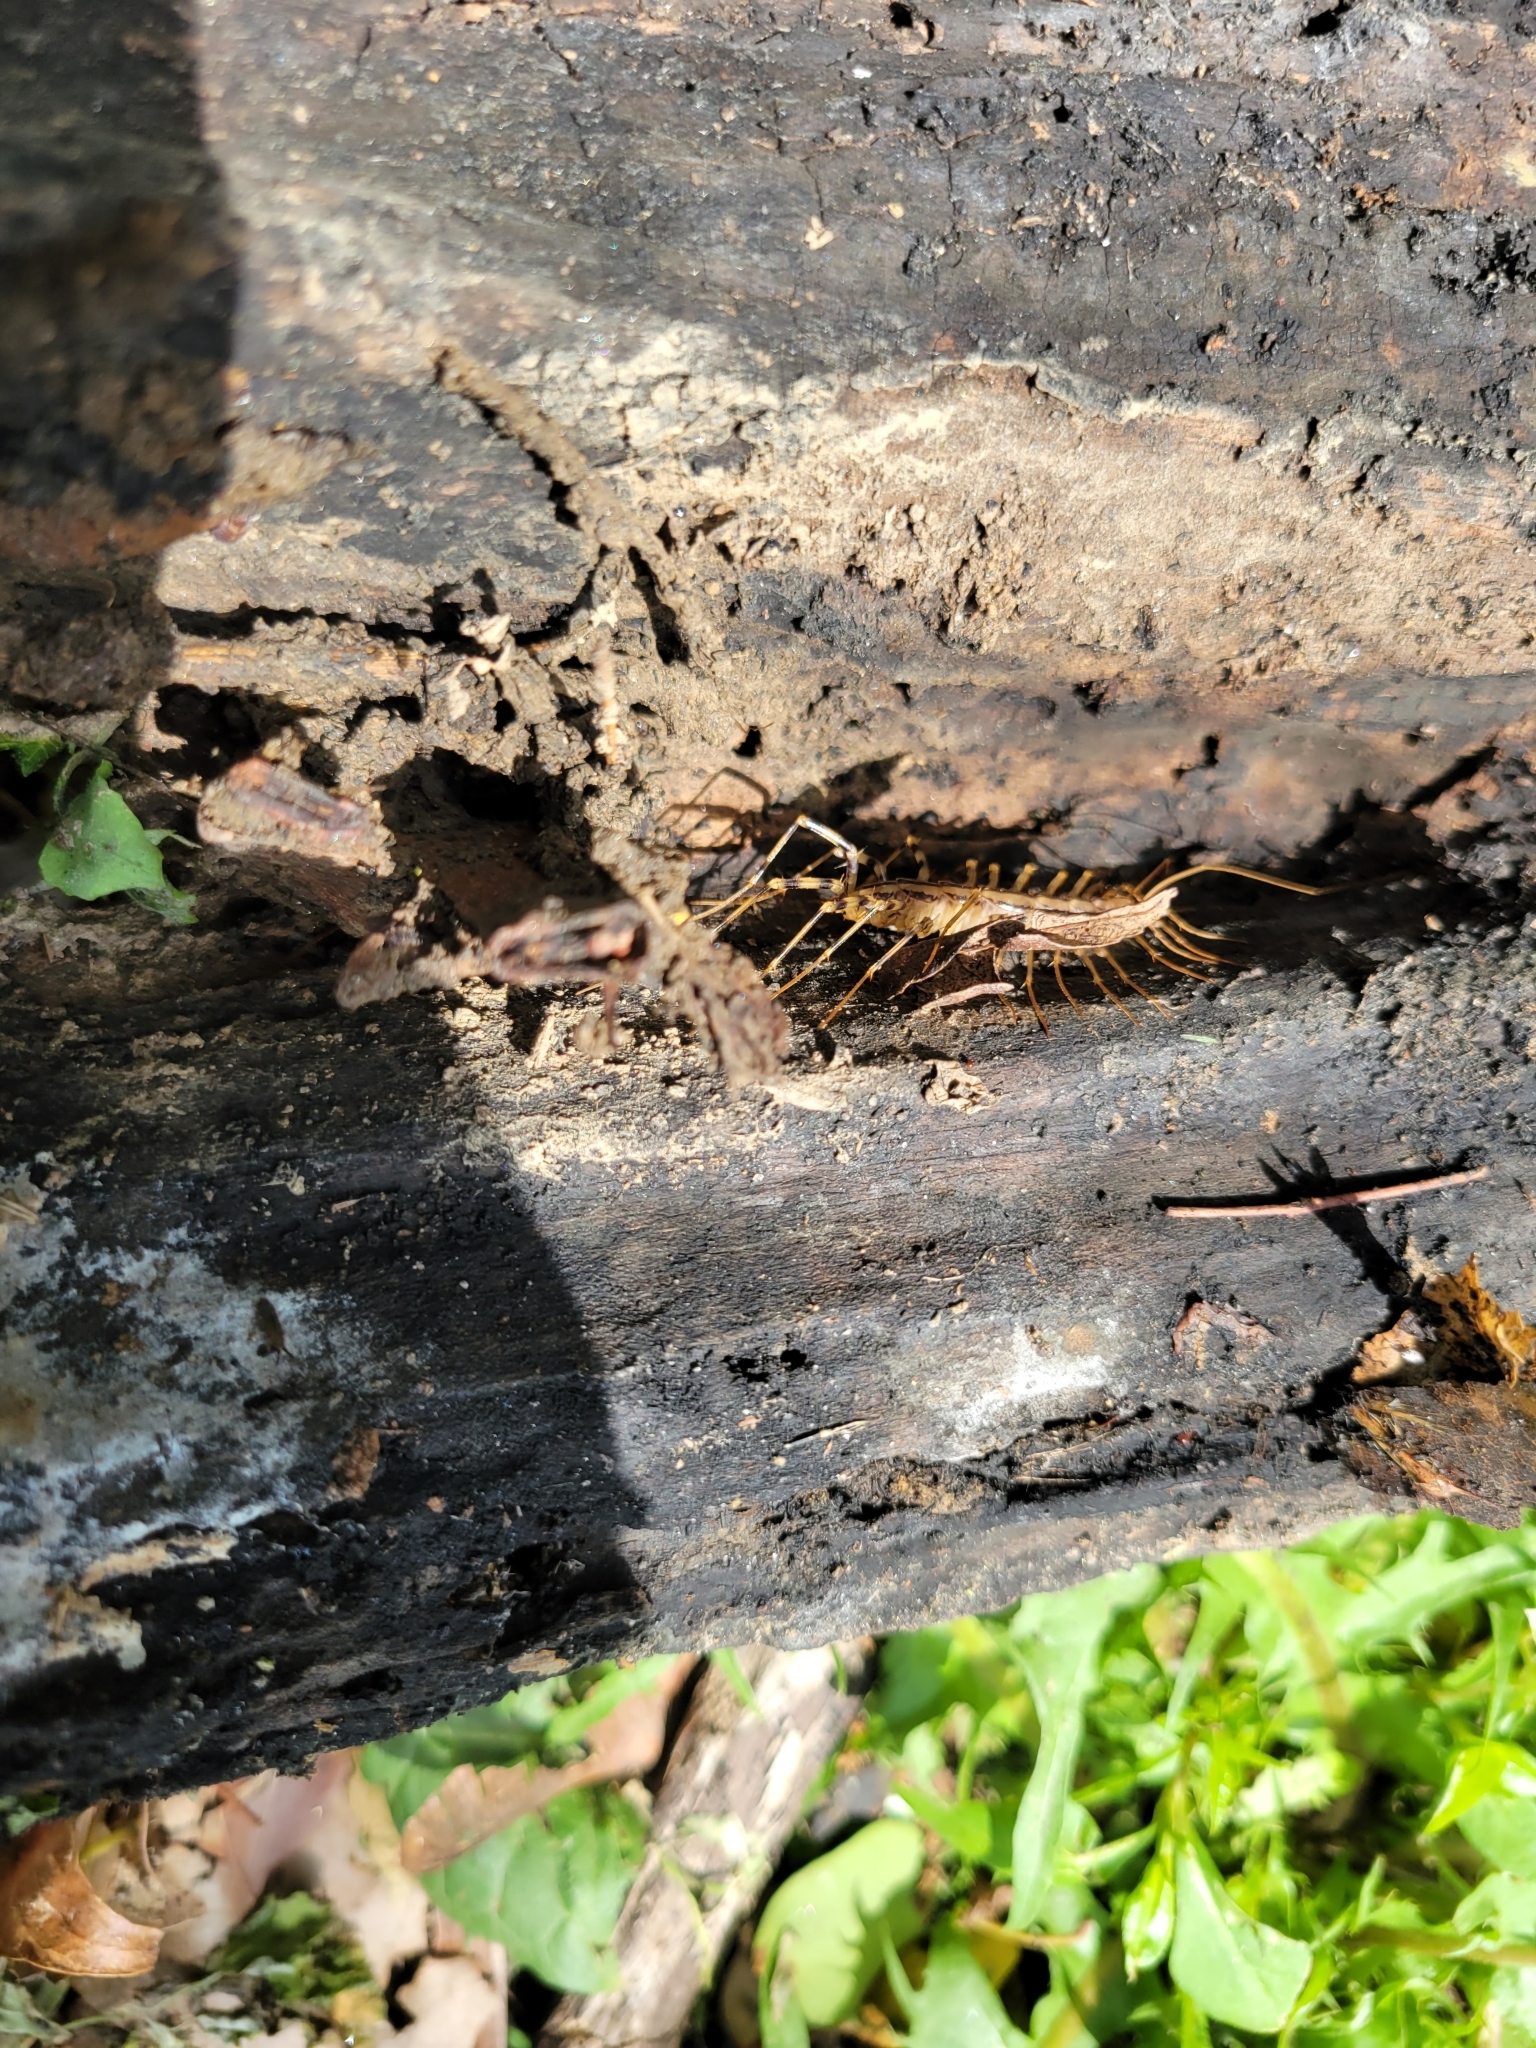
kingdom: Animalia
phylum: Arthropoda
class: Chilopoda
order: Scutigeromorpha
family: Scutigeridae
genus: Scutigera
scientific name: Scutigera coleoptrata
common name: House centipede
